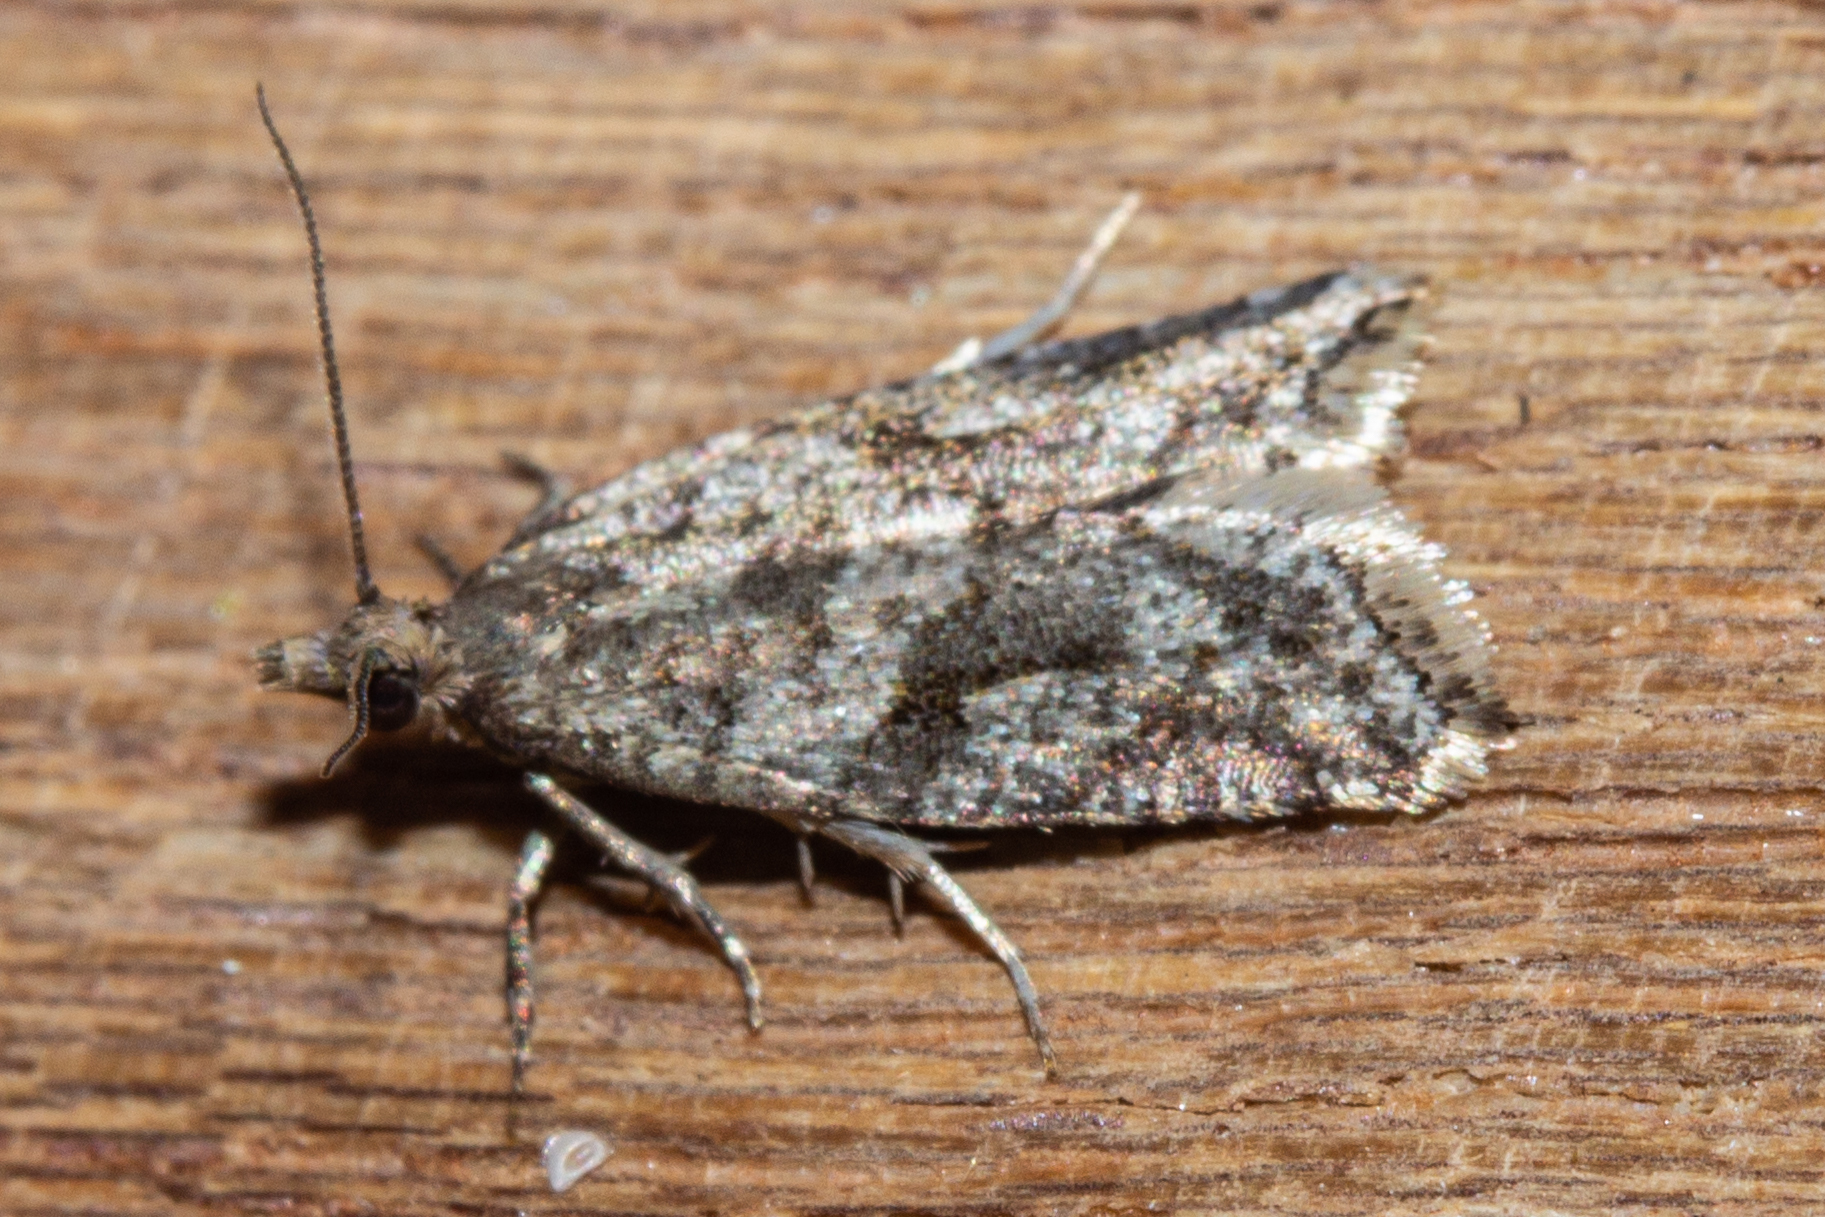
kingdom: Animalia
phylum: Arthropoda
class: Insecta
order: Lepidoptera
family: Tortricidae
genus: Capua
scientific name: Capua semiferana
